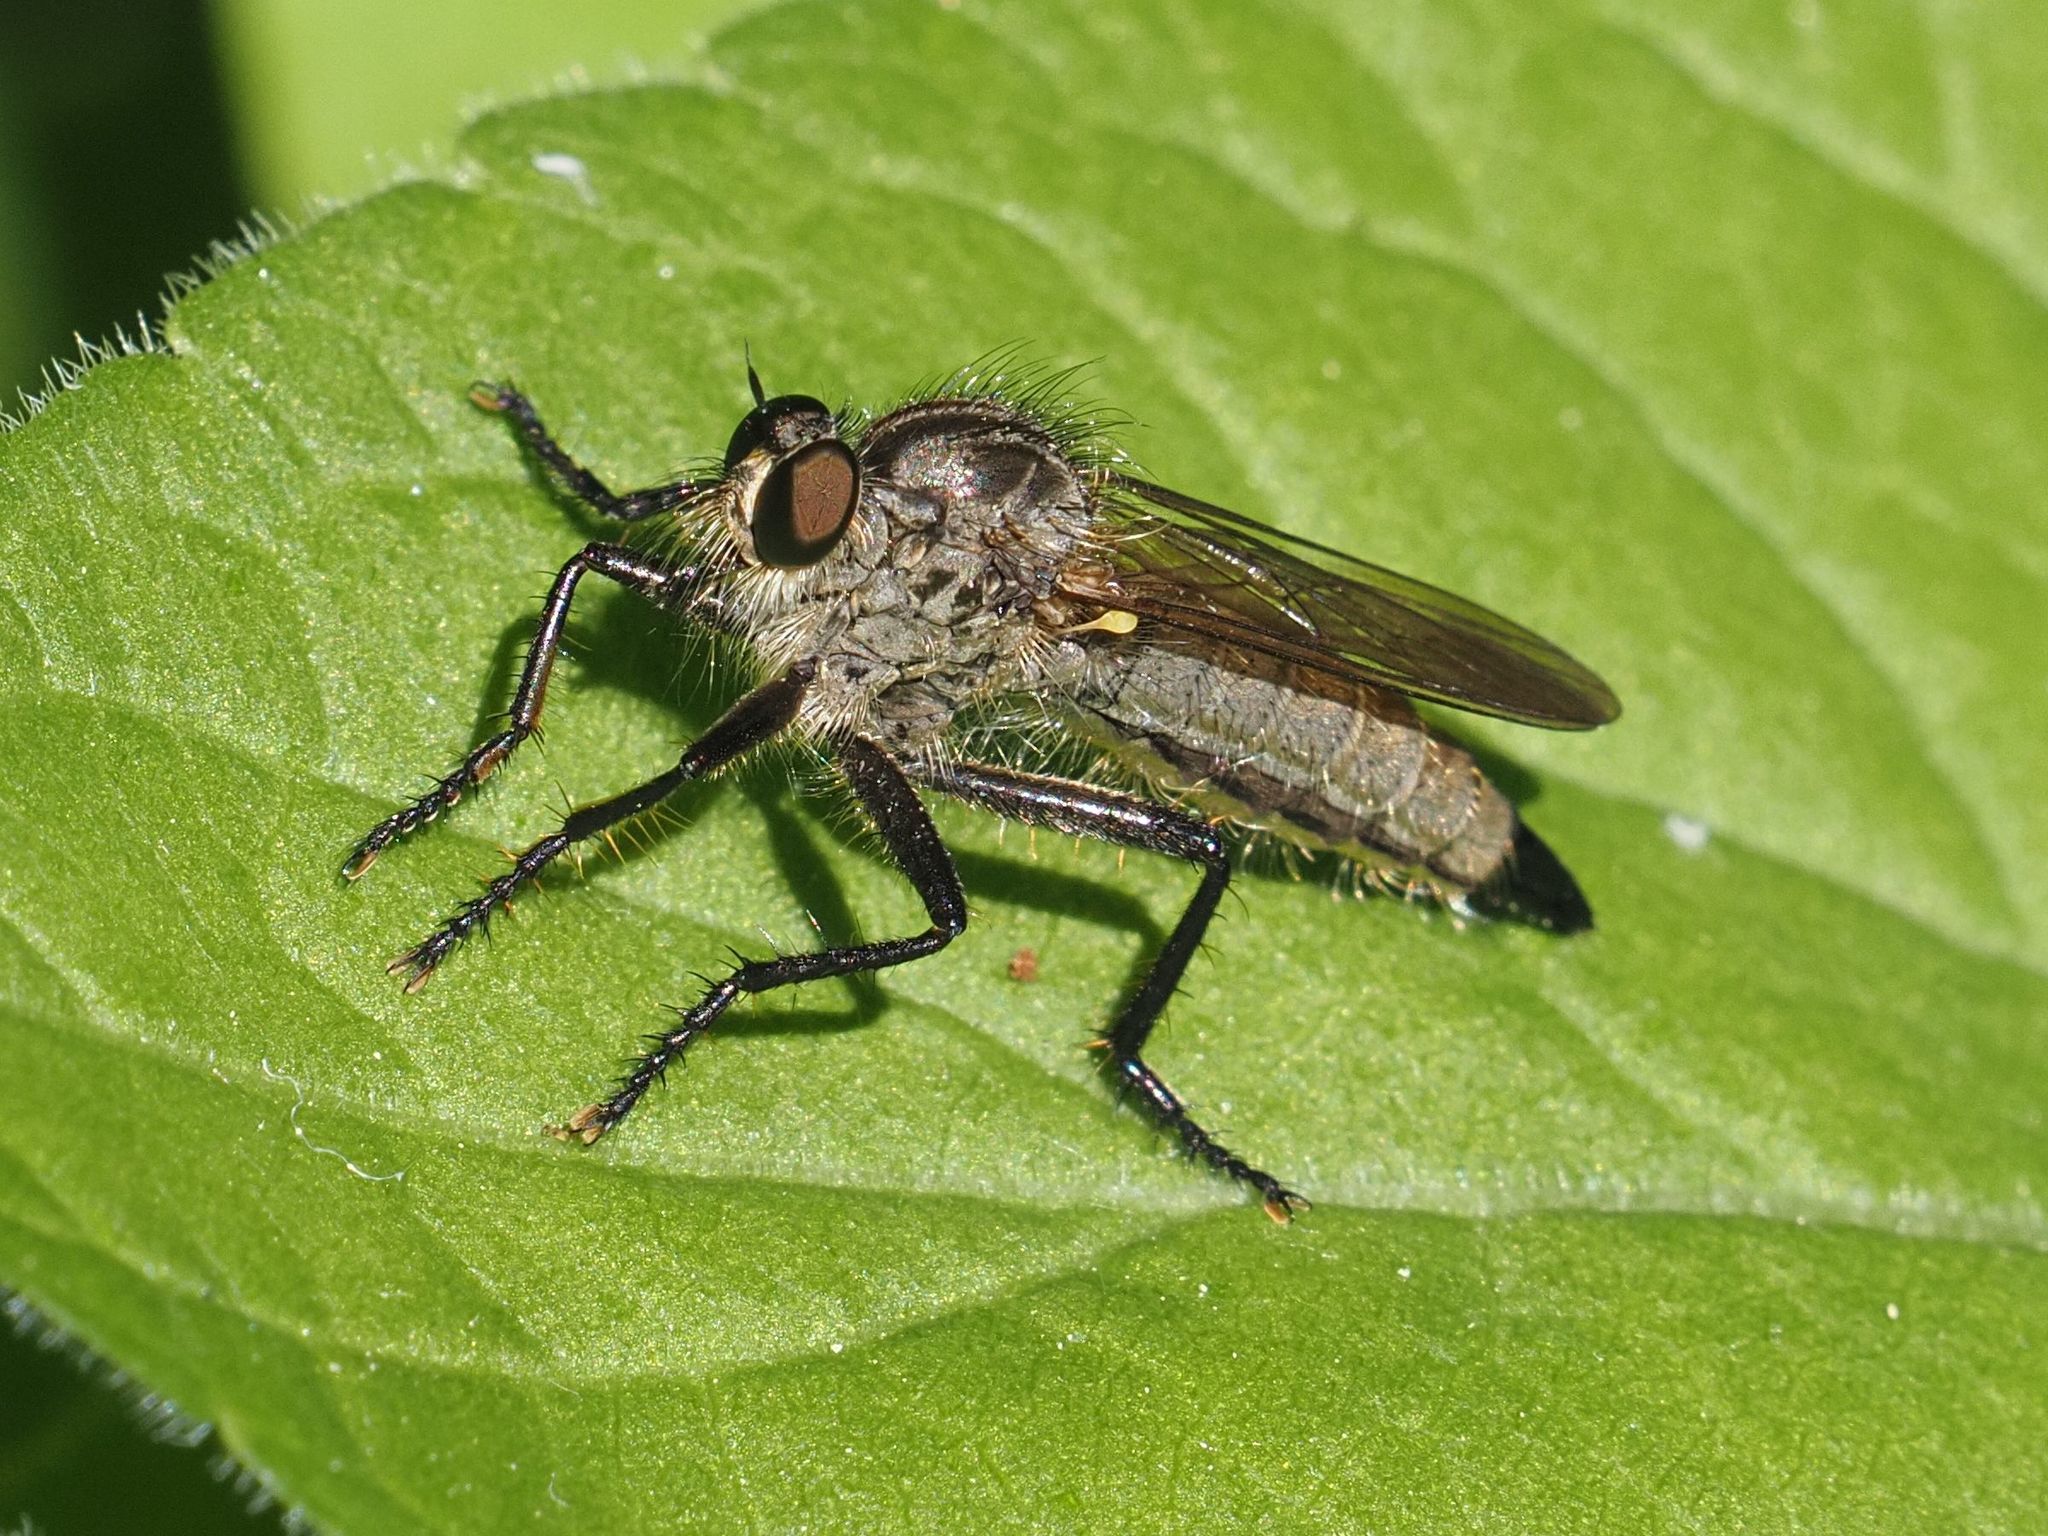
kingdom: Animalia
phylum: Arthropoda
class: Insecta
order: Diptera
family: Asilidae
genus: Didysmachus
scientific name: Didysmachus picipes
